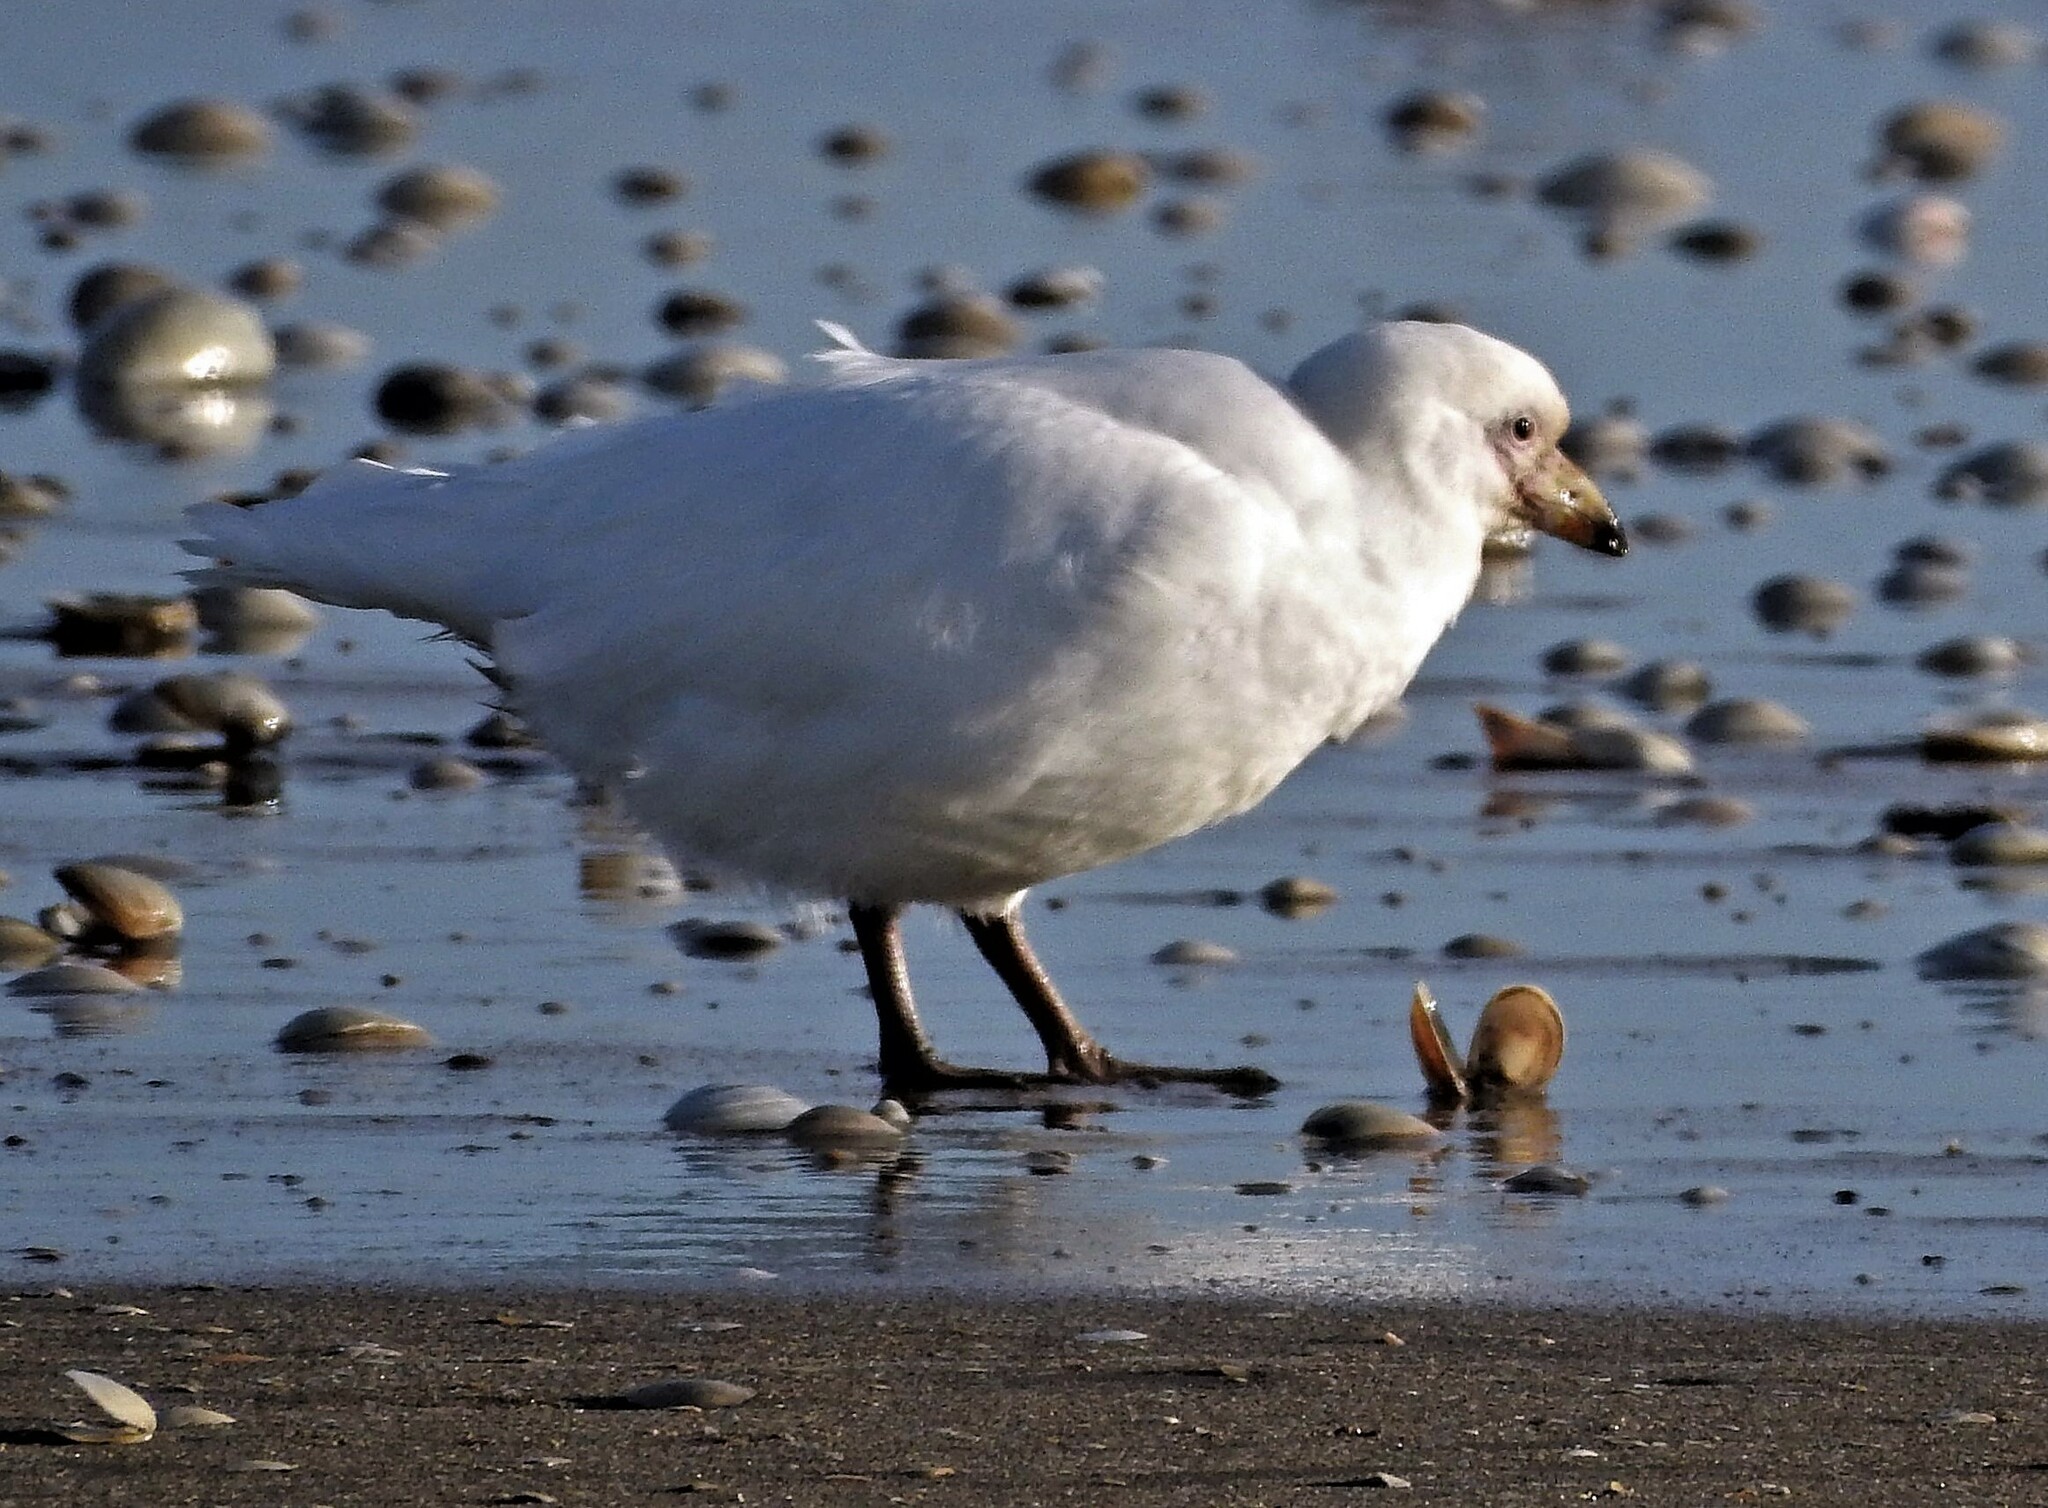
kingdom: Animalia
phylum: Chordata
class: Aves
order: Charadriiformes
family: Chionidae
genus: Chionis
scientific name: Chionis albus
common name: Snowy sheathbill
